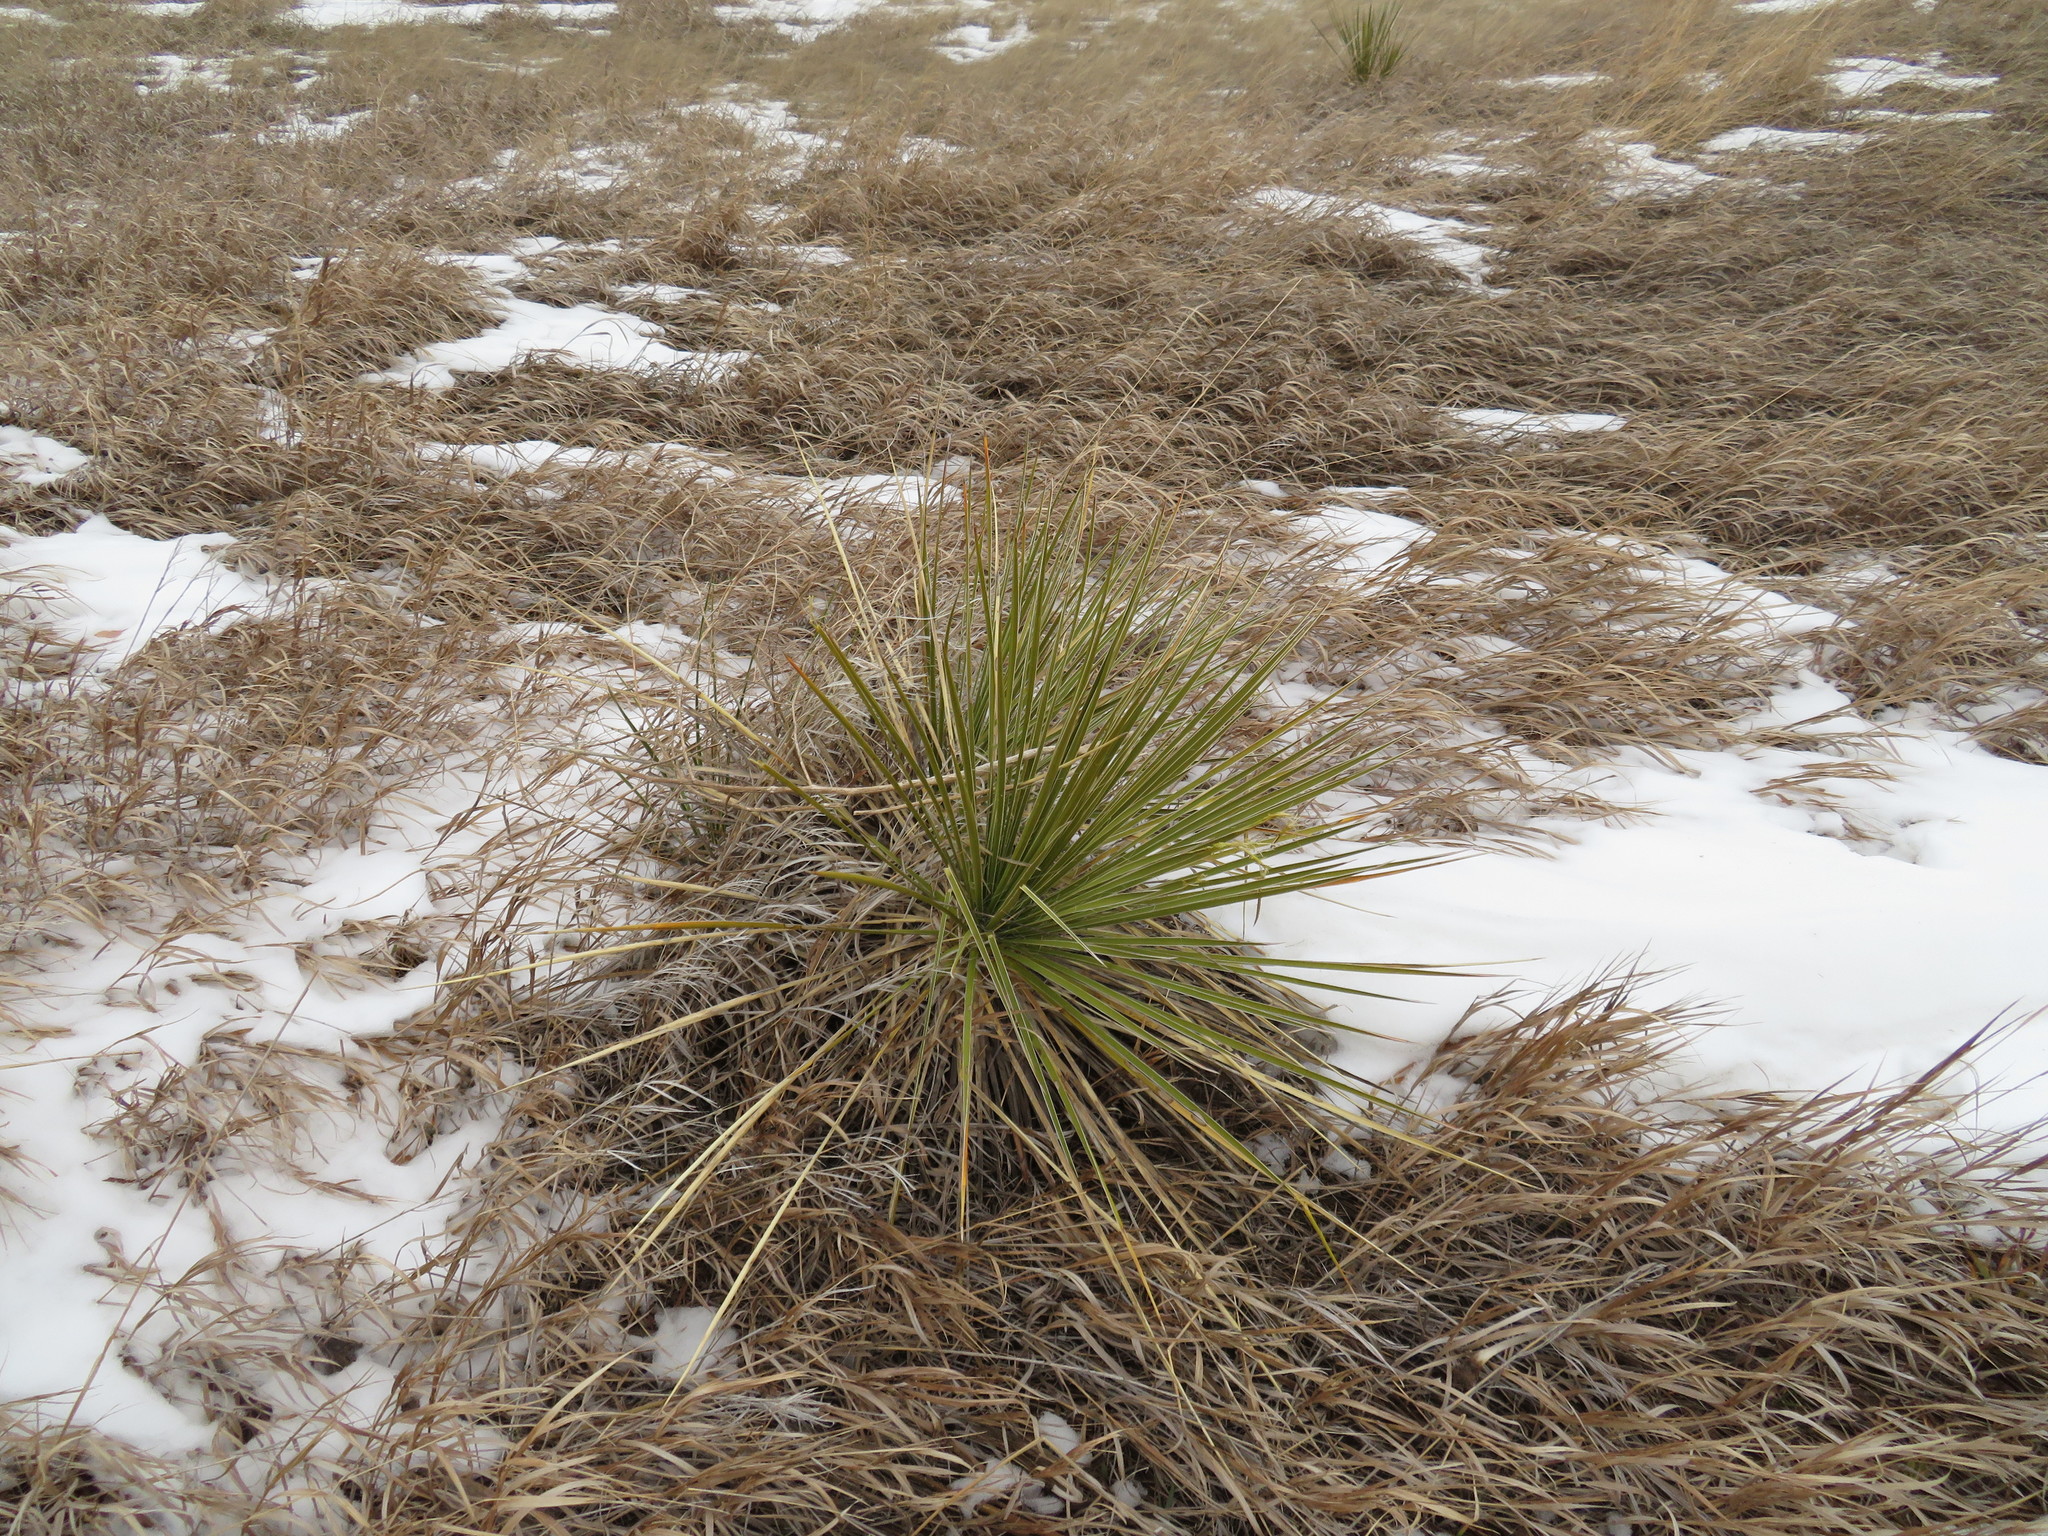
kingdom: Plantae
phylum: Tracheophyta
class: Liliopsida
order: Asparagales
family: Asparagaceae
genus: Yucca
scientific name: Yucca glauca
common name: Great plains yucca
